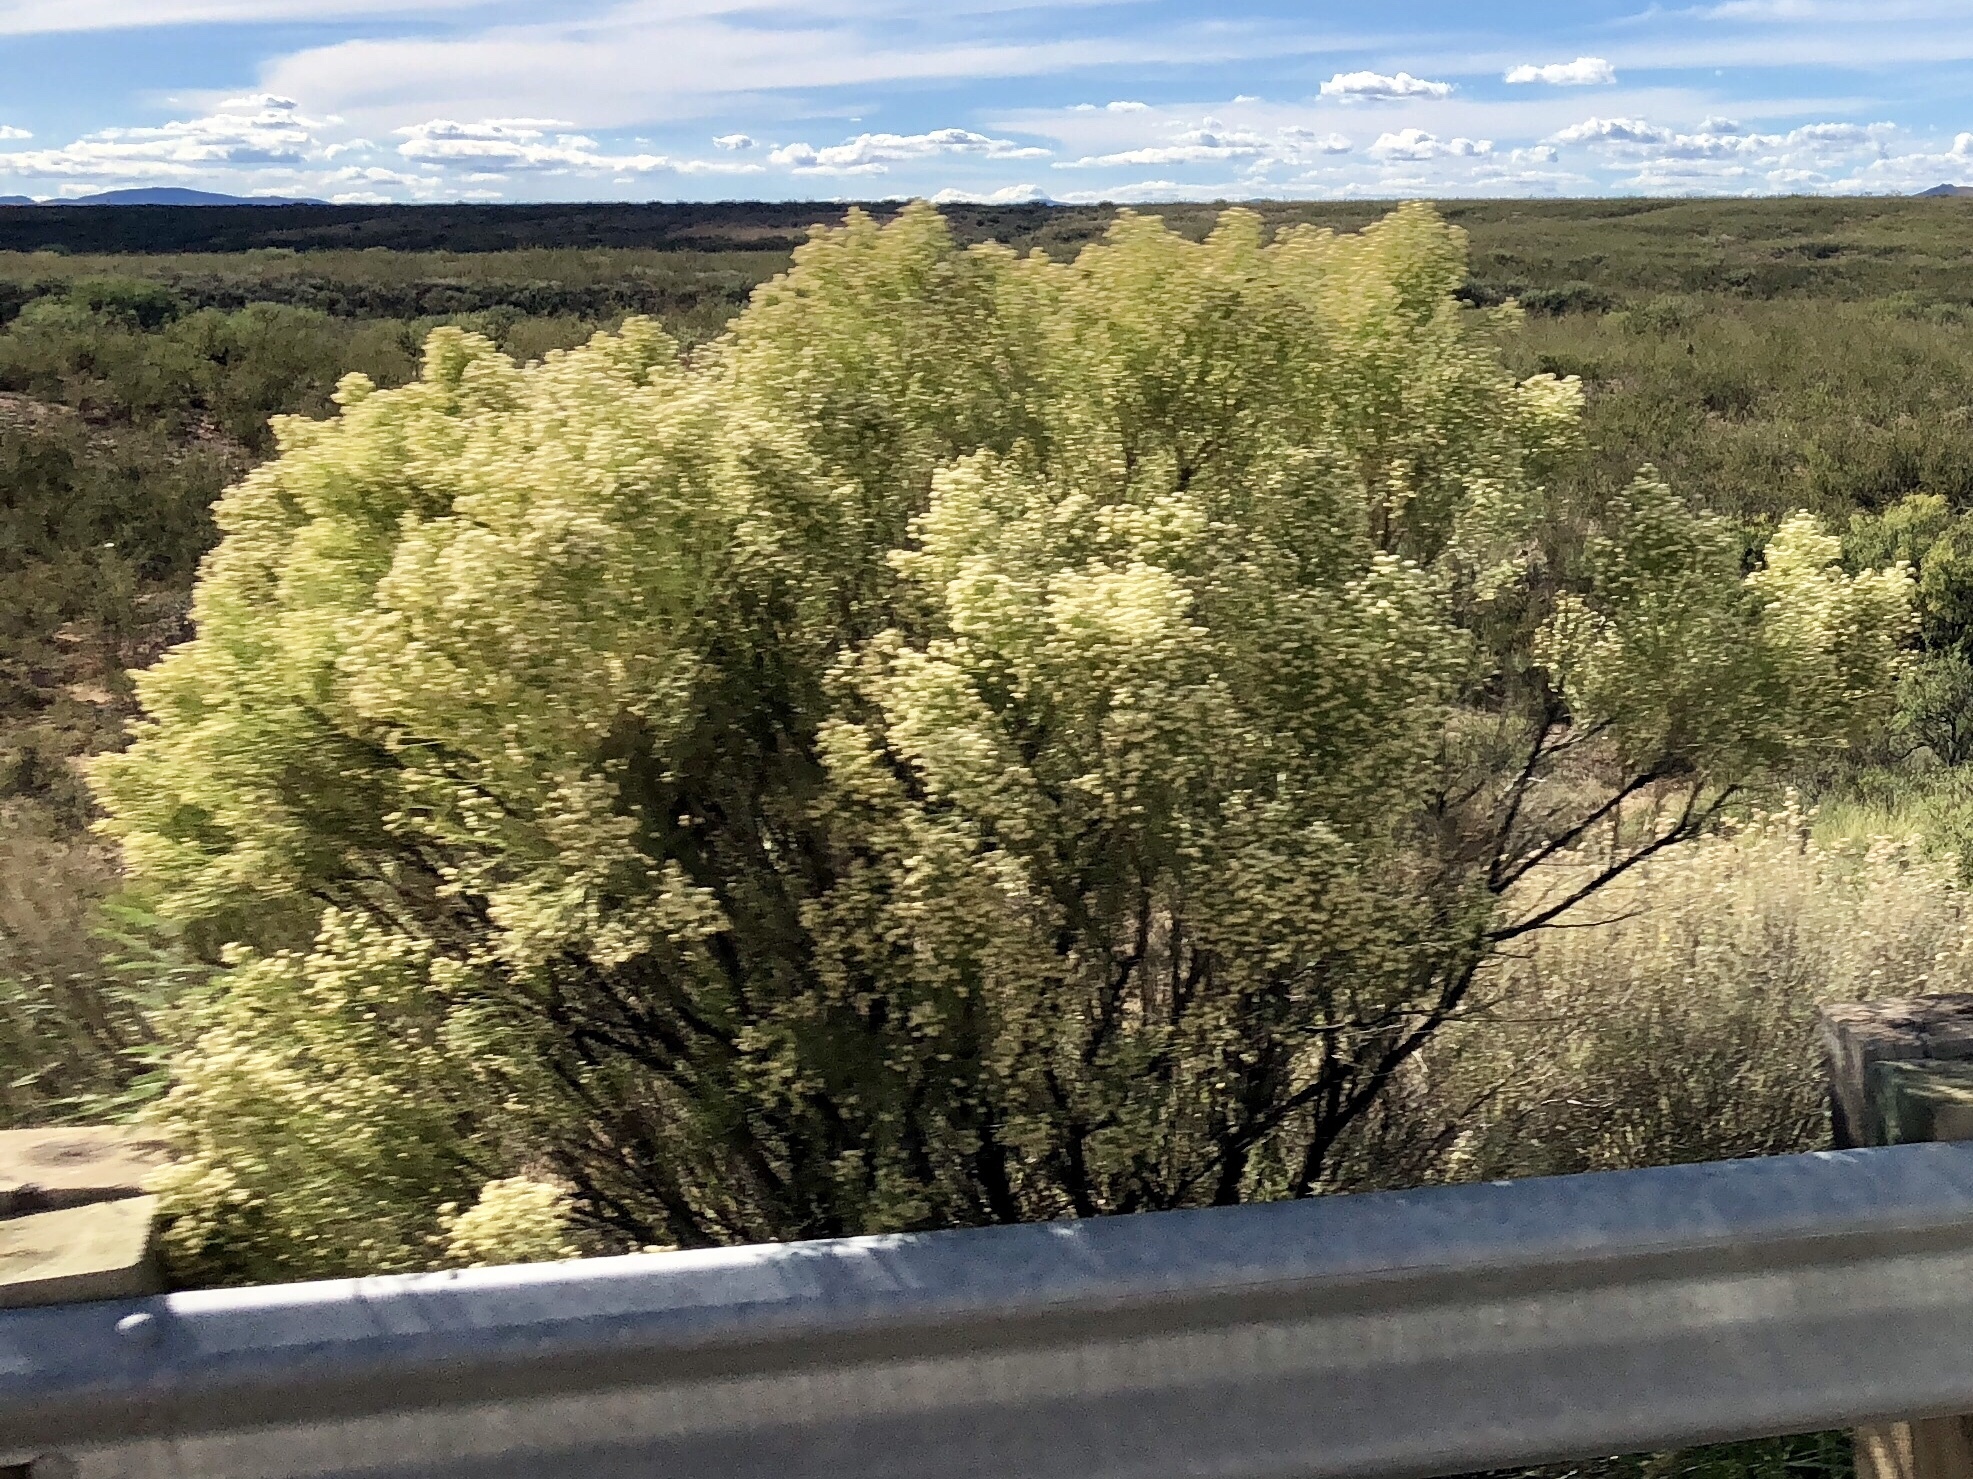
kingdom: Plantae
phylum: Tracheophyta
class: Magnoliopsida
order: Asterales
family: Asteraceae
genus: Baccharis
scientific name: Baccharis sarothroides
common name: Desert-broom
